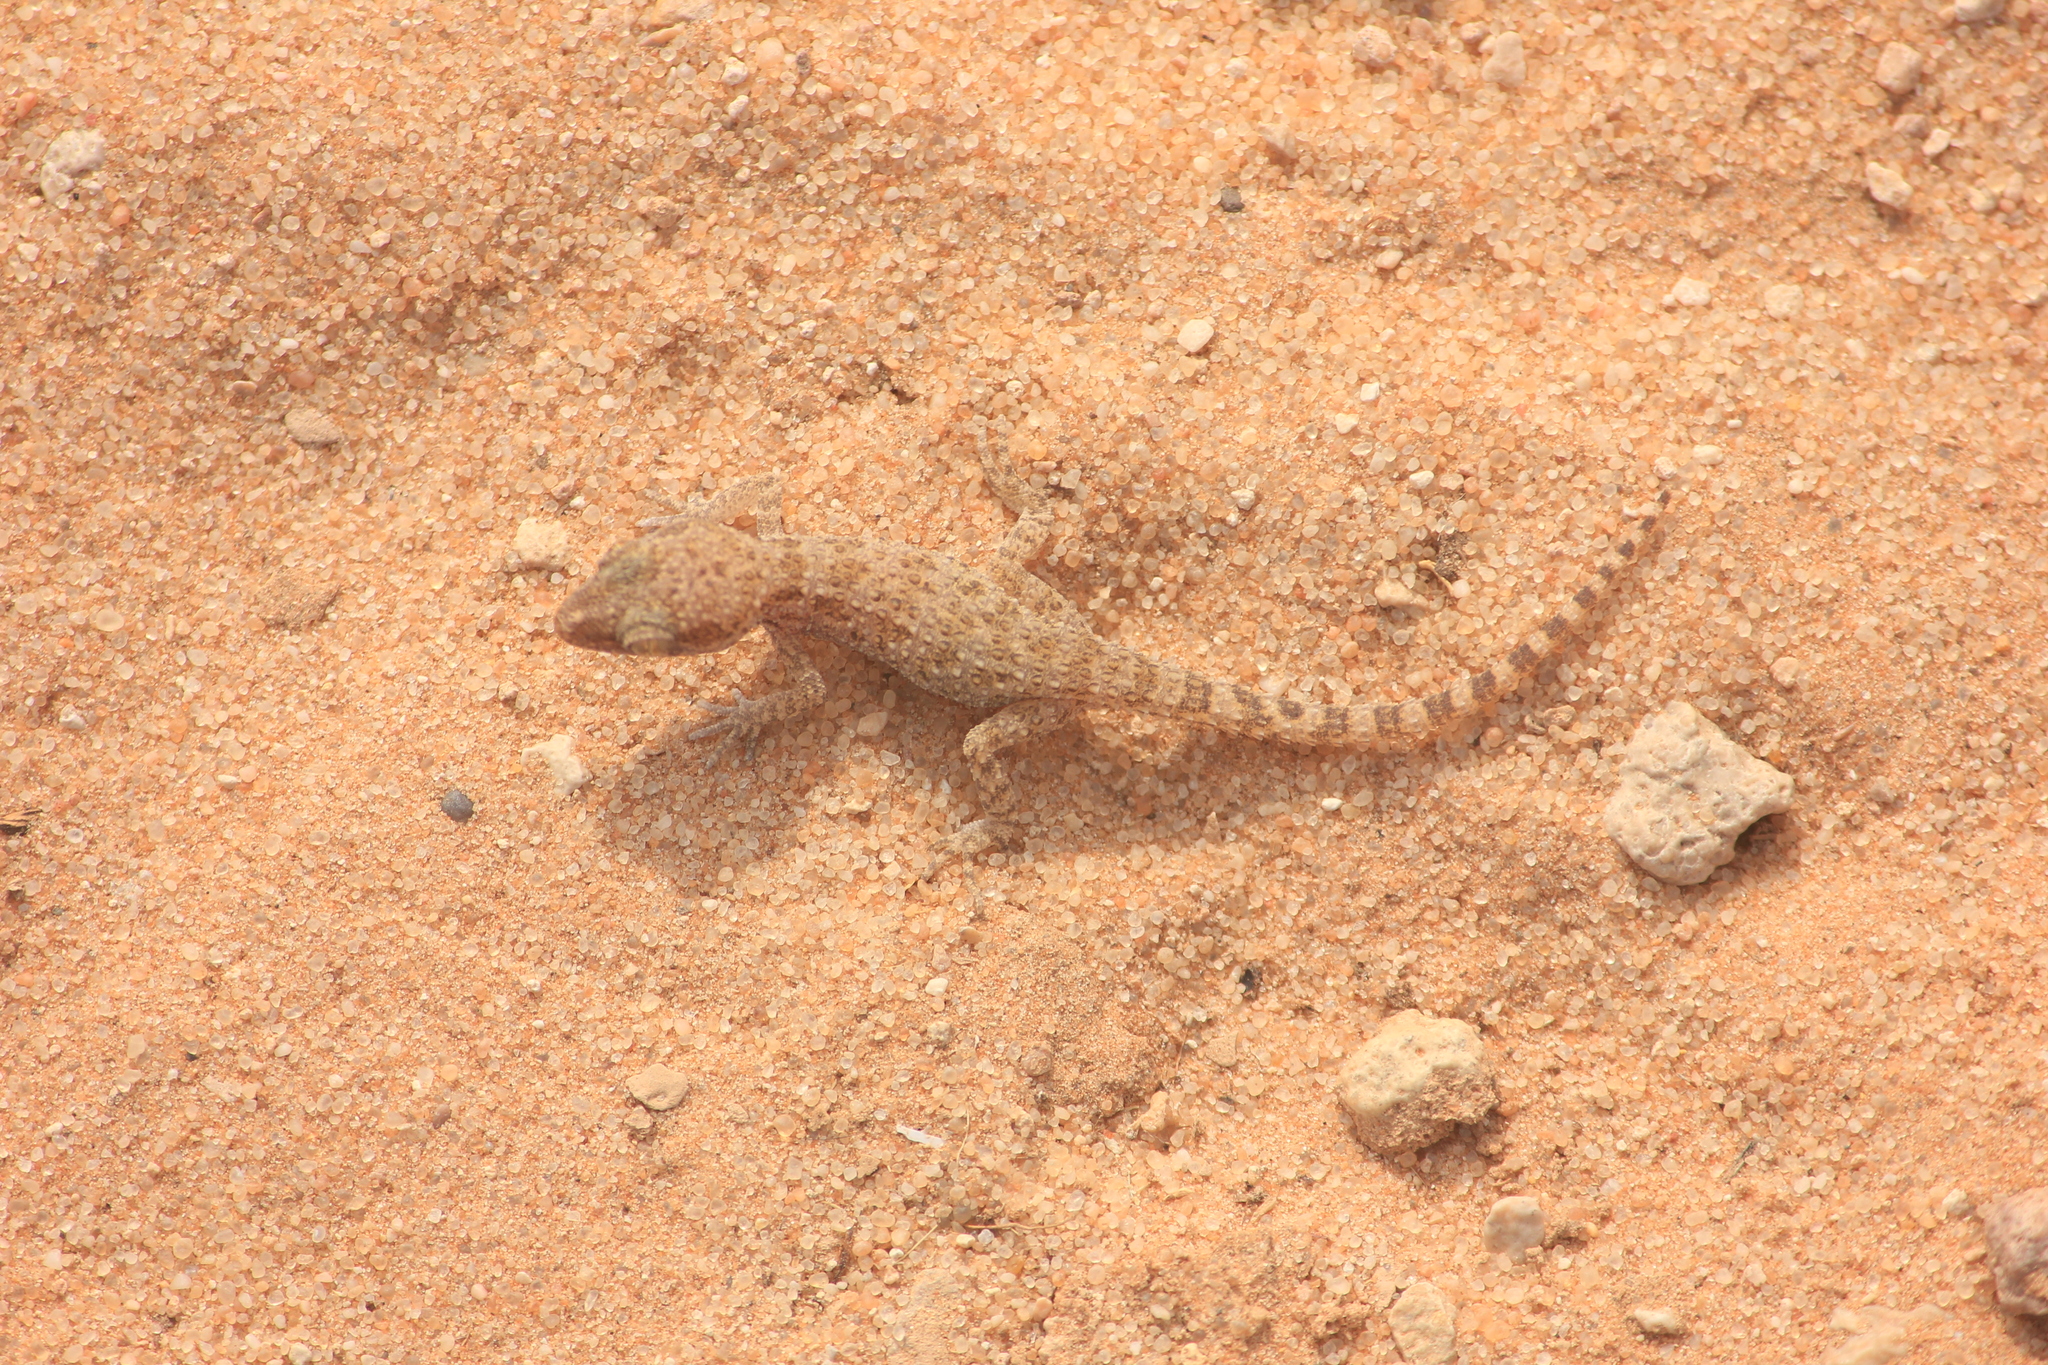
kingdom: Animalia
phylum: Chordata
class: Squamata
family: Gekkonidae
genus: Bunopus
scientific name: Bunopus tuberculatus
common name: Southern tuberculated gecko
